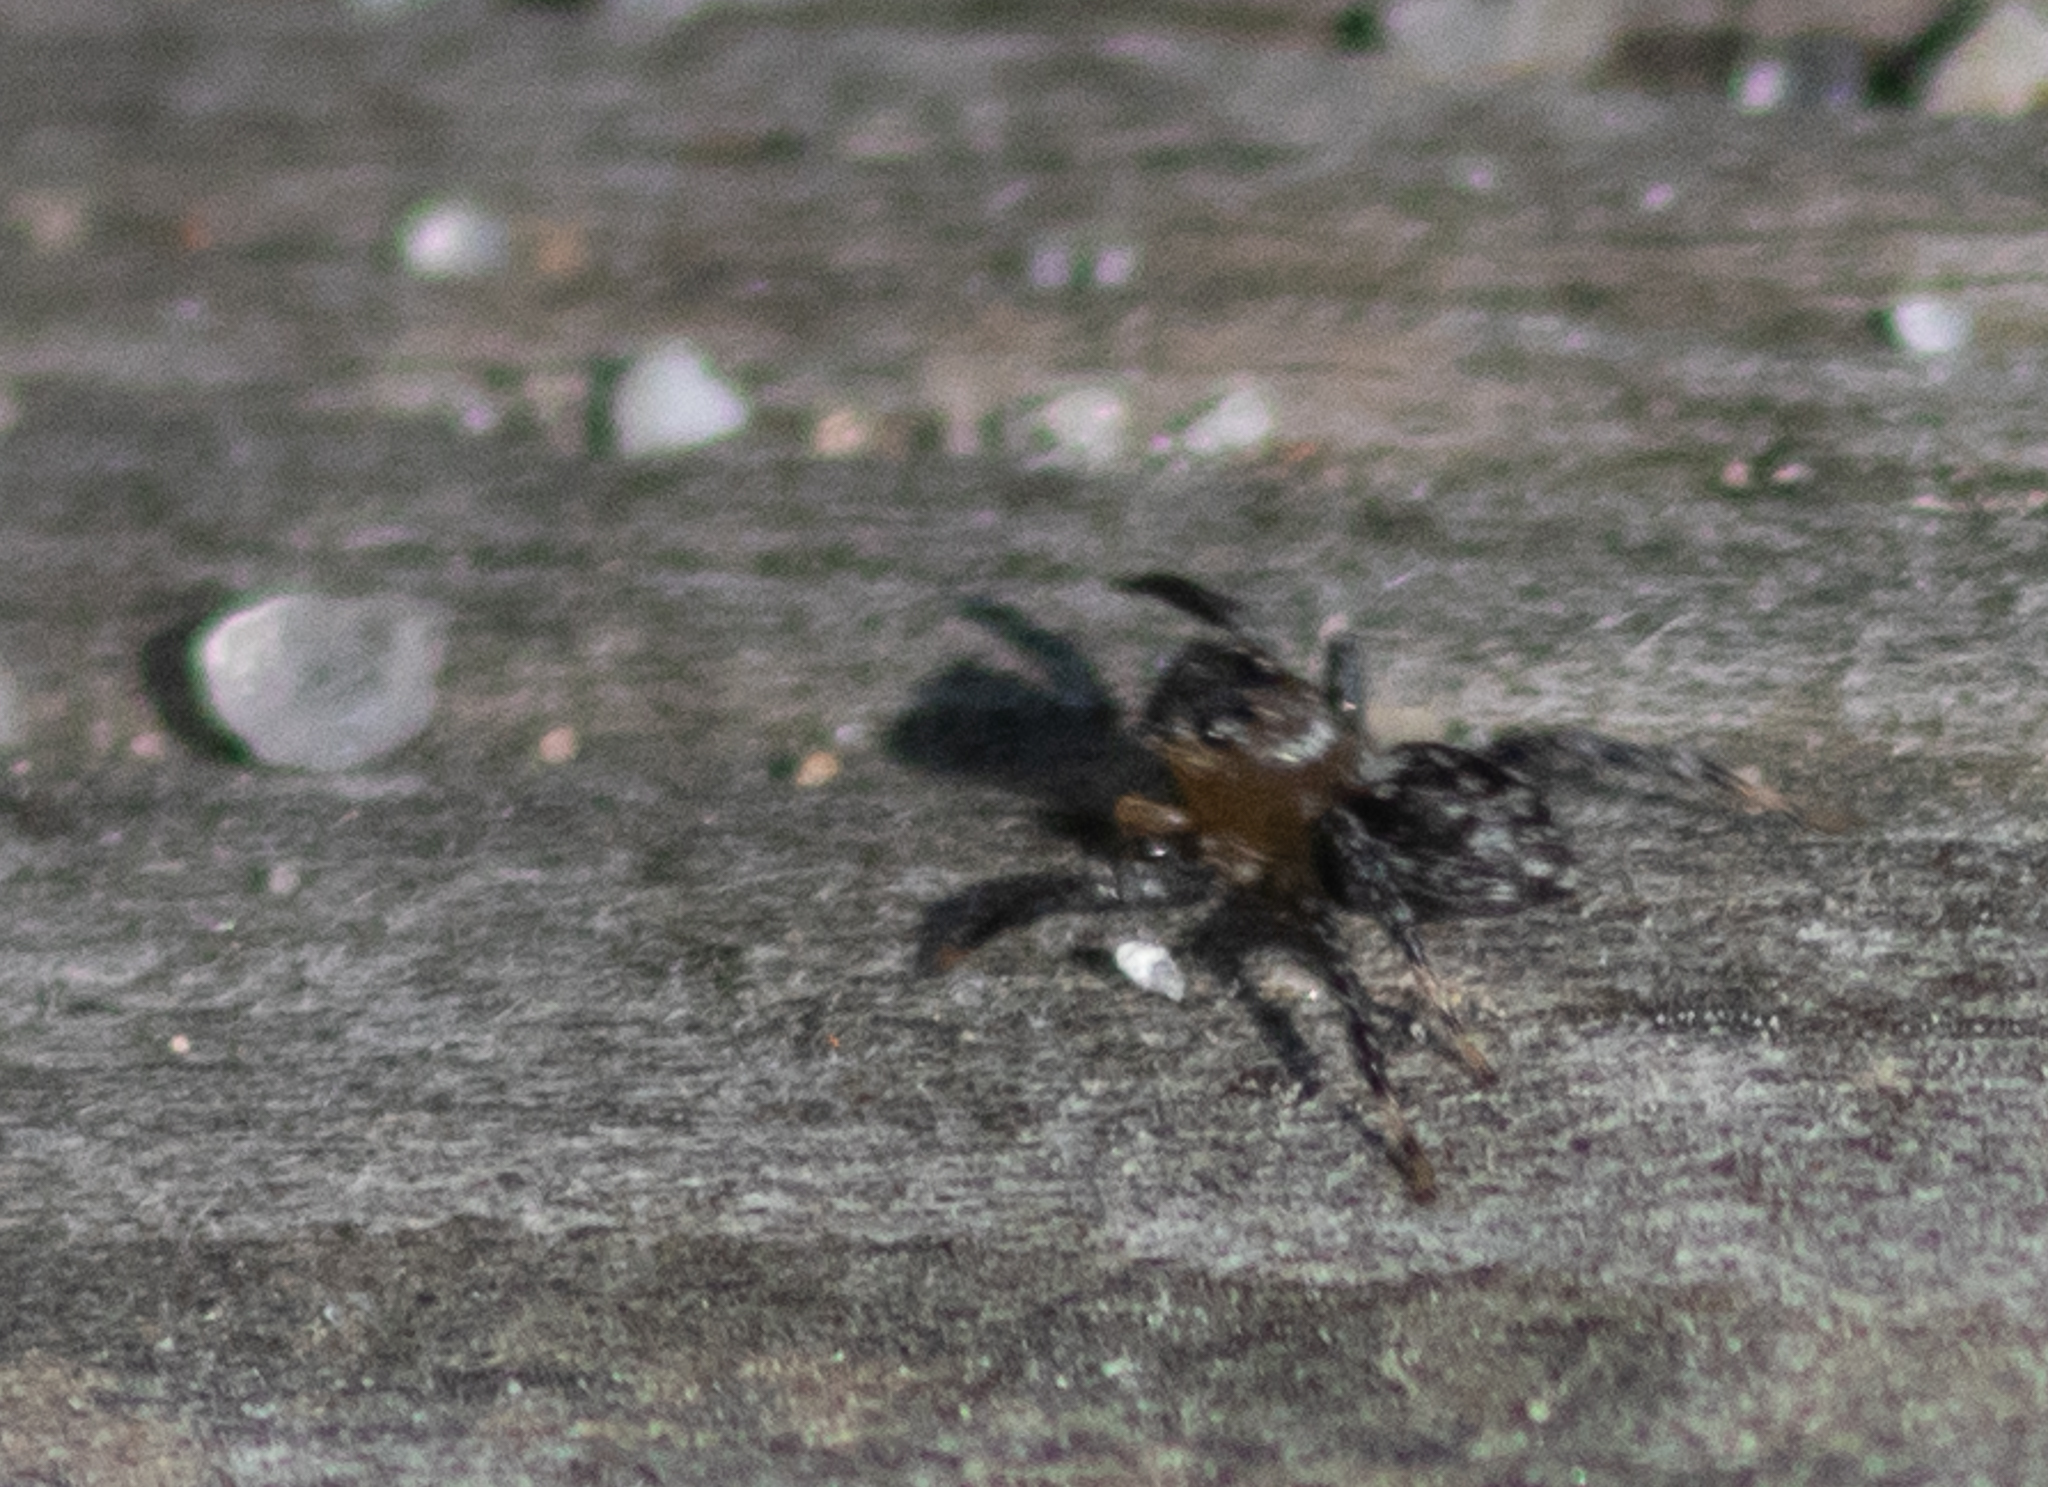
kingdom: Animalia
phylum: Arthropoda
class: Arachnida
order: Araneae
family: Salticidae
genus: Naphrys
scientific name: Naphrys pulex
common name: Flea jumping spider
